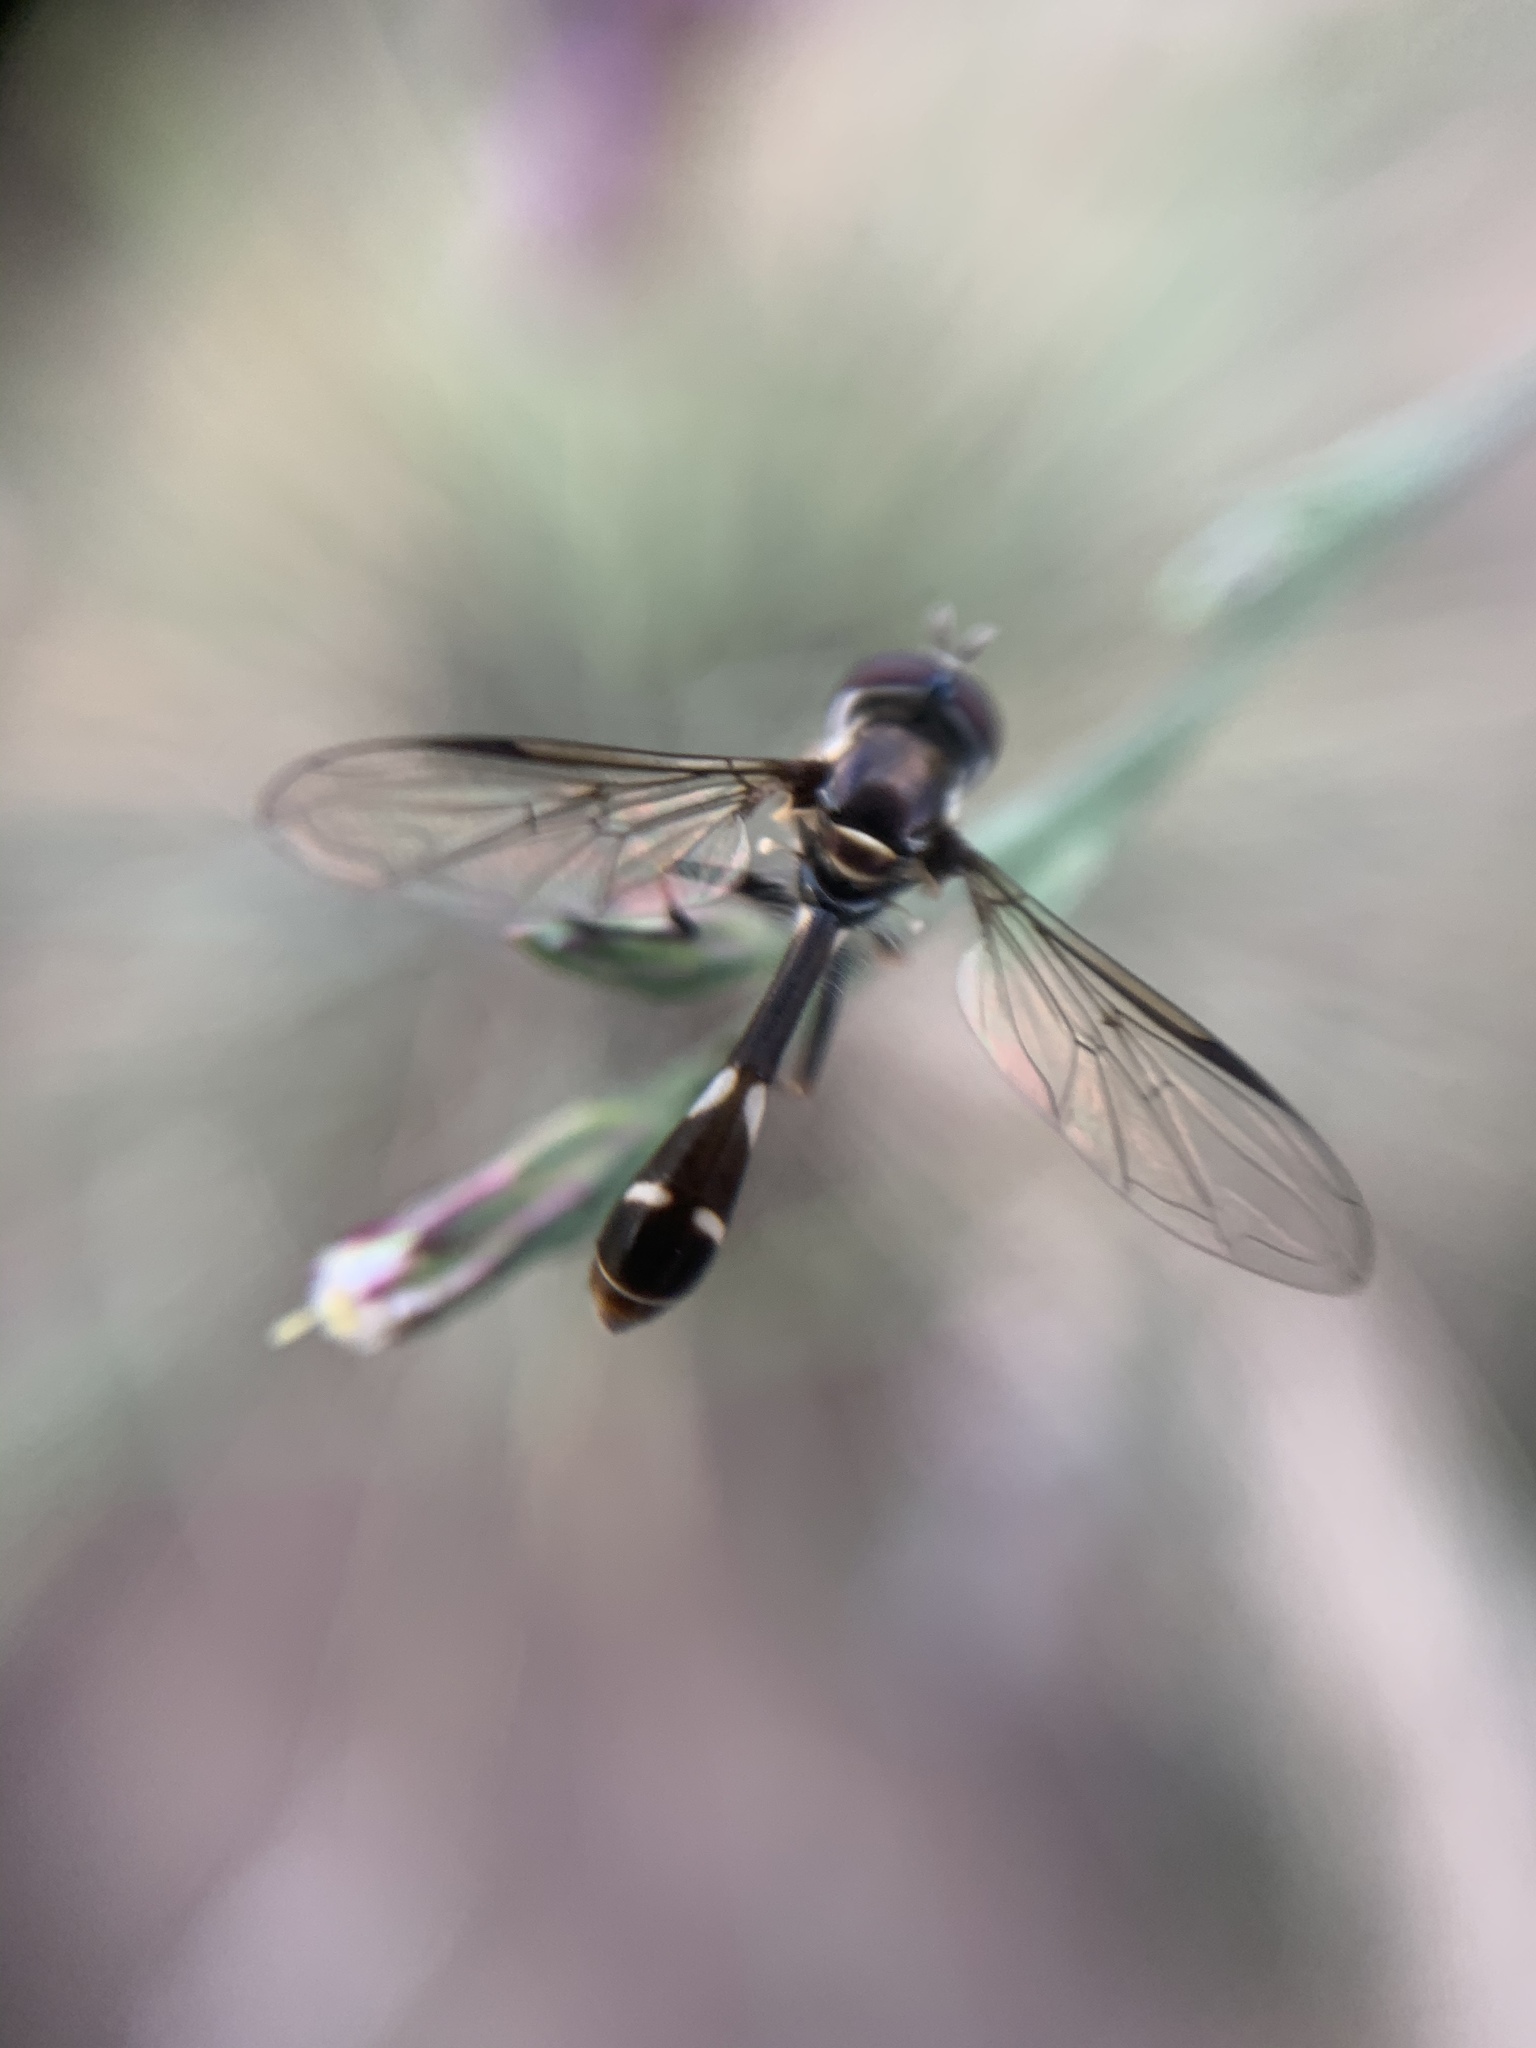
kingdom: Animalia
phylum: Arthropoda
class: Insecta
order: Diptera
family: Syrphidae
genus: Dioprosopa
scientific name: Dioprosopa clavatus
